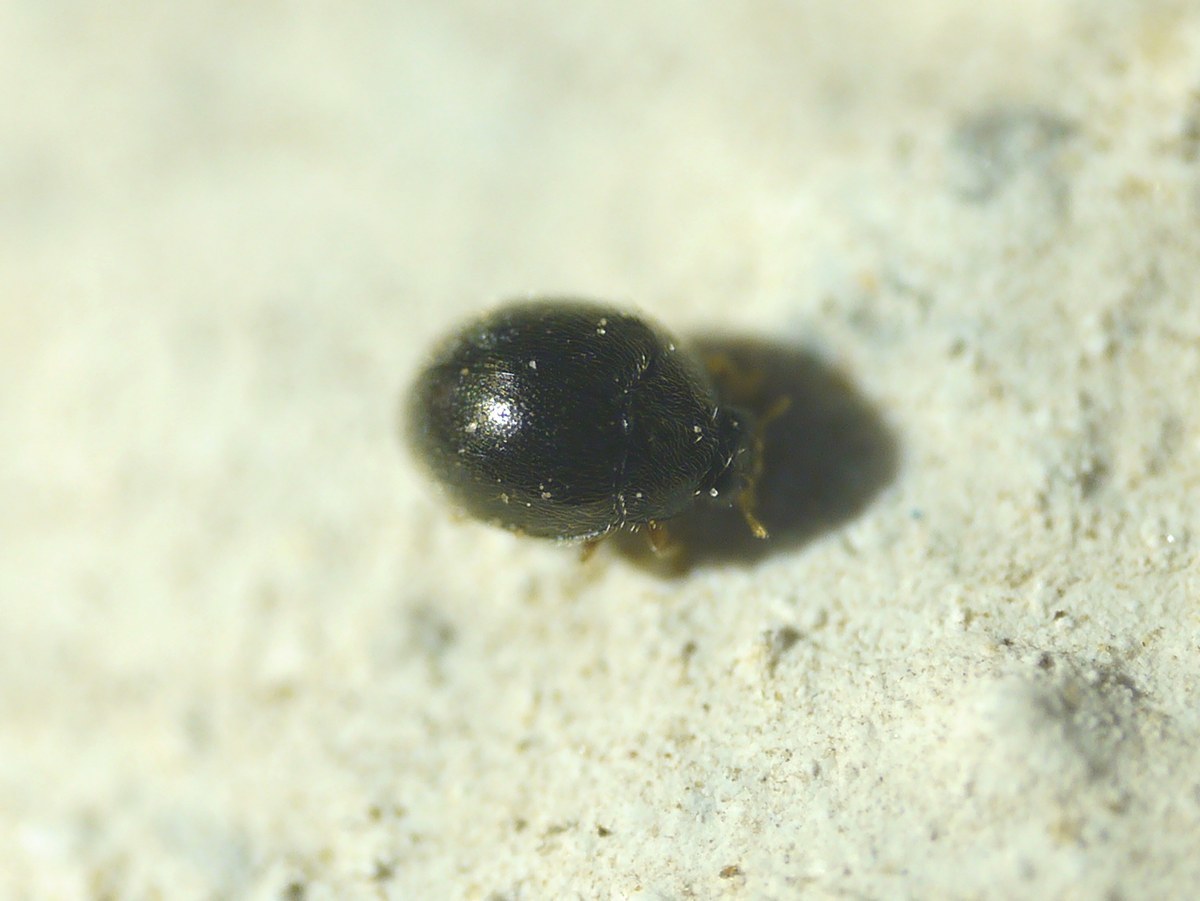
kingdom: Animalia
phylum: Arthropoda
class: Insecta
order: Coleoptera
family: Coccinellidae
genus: Stethorus
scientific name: Stethorus pusillus
